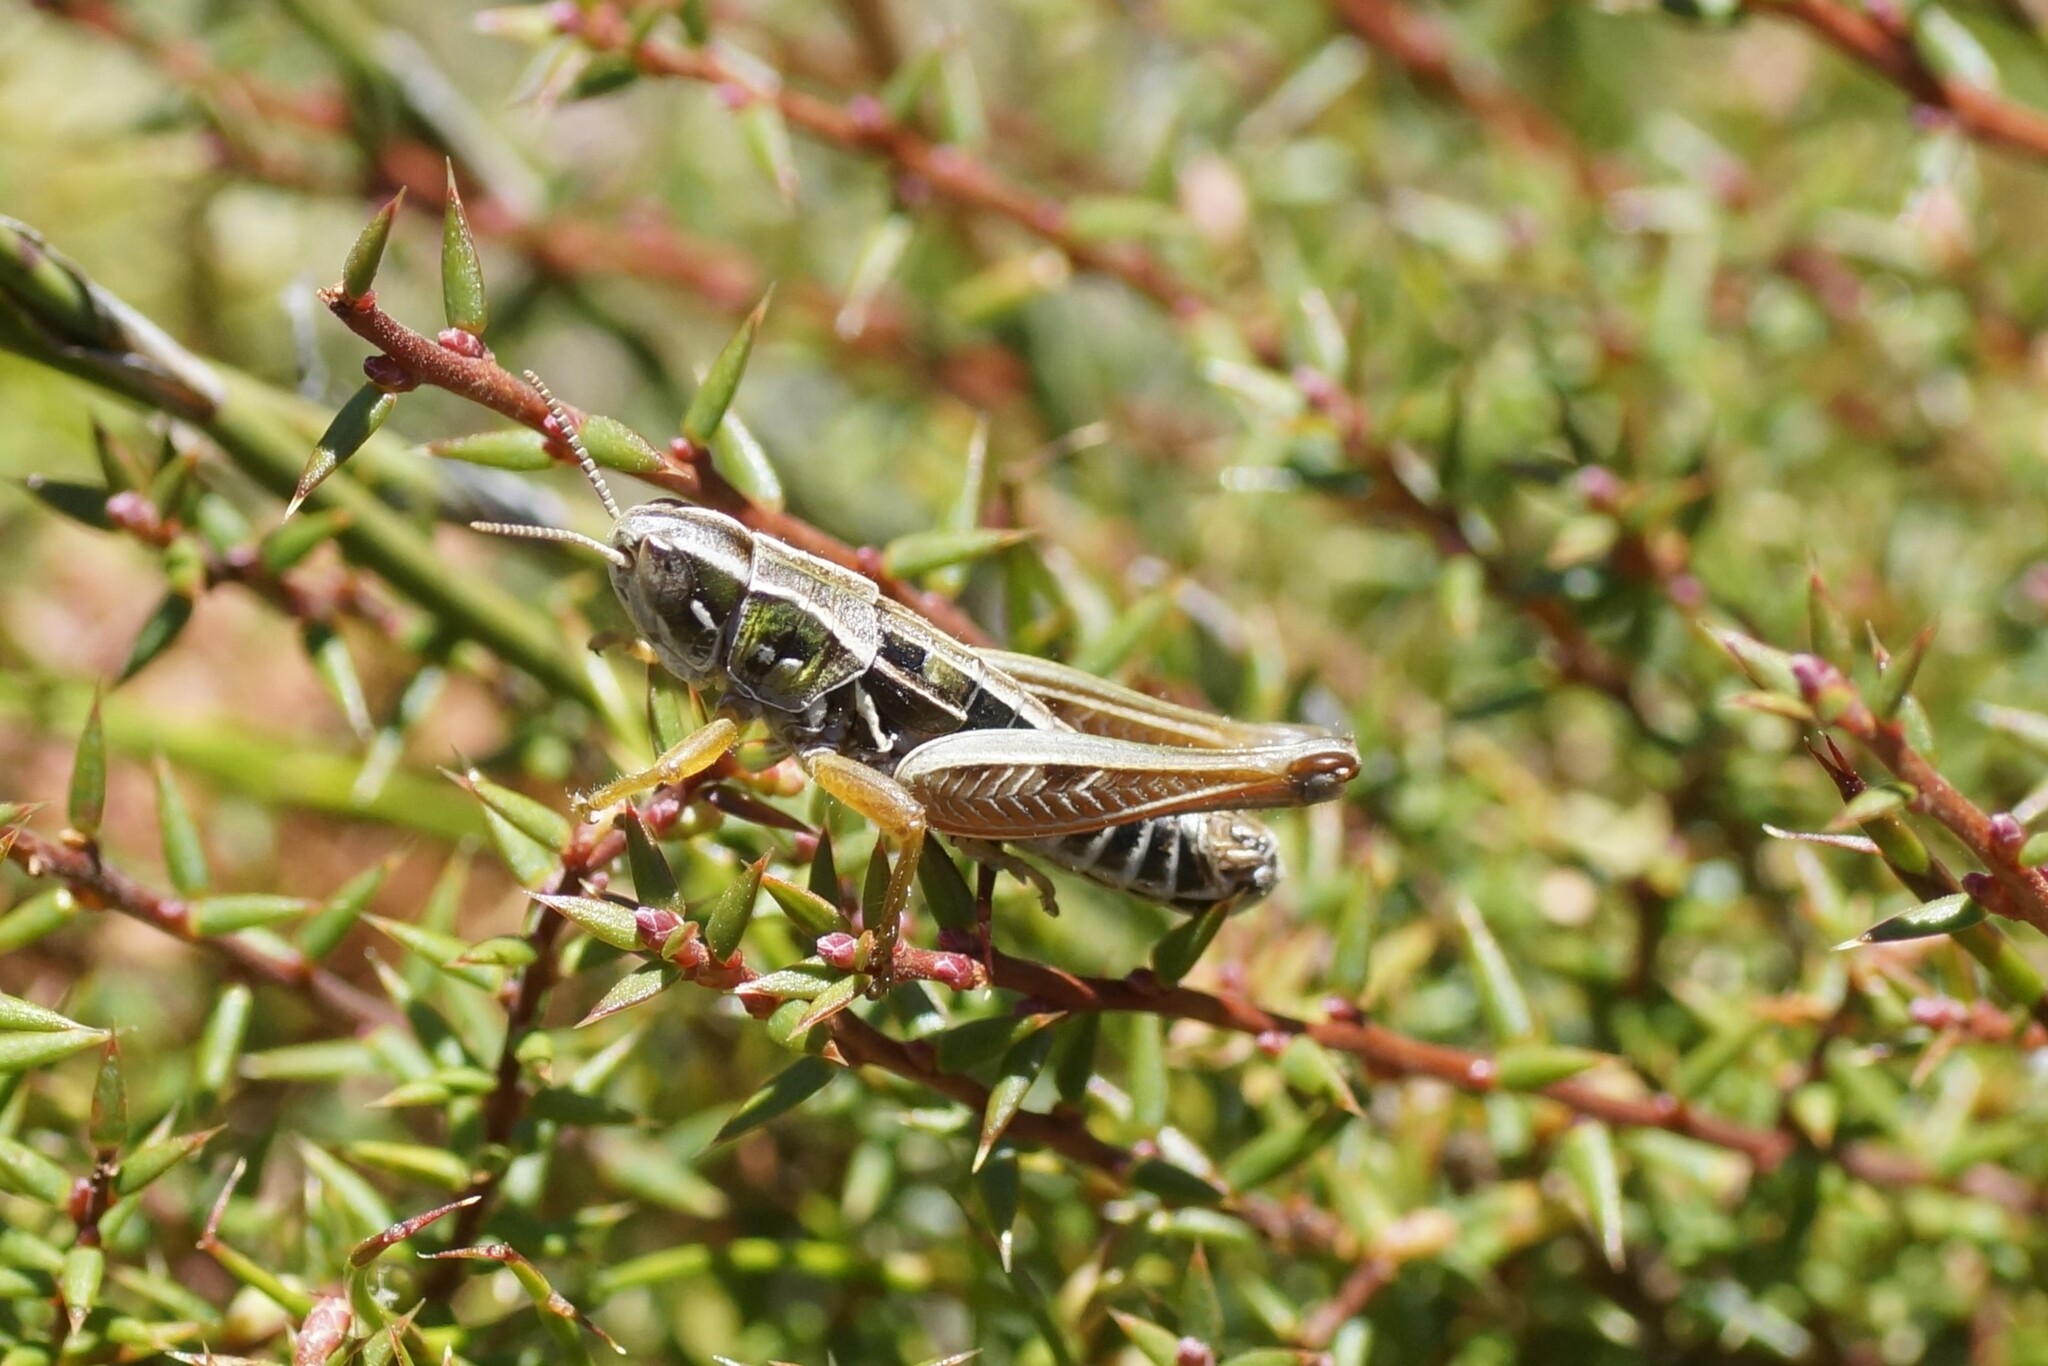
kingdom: Animalia
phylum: Arthropoda
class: Insecta
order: Orthoptera
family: Acrididae
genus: Kosciuscola
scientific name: Kosciuscola tasmanicus
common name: Tasmanian skyhopper
